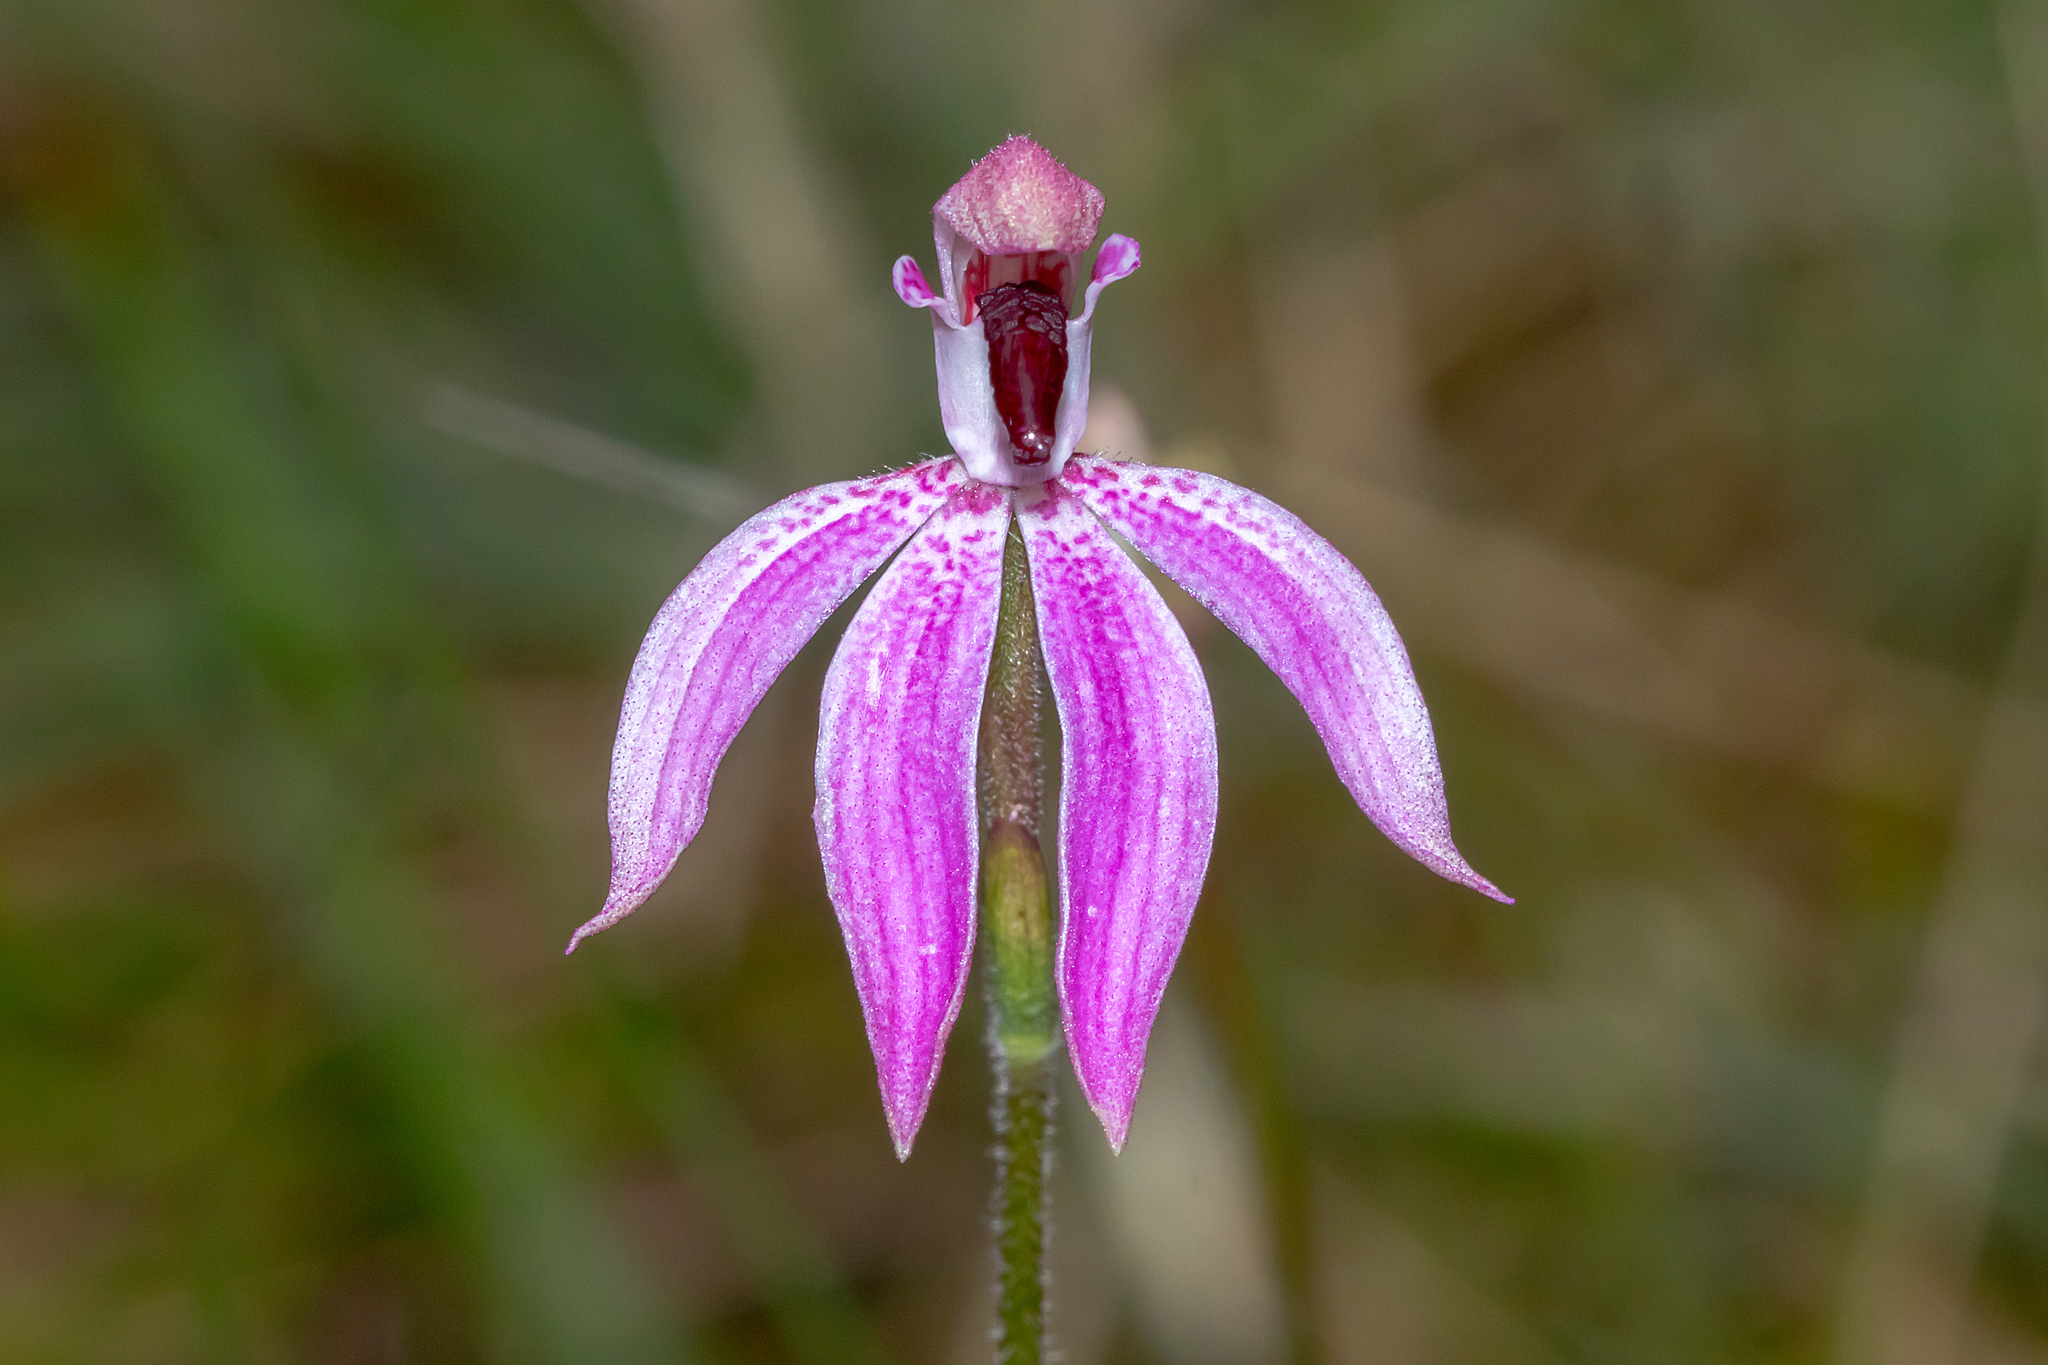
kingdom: Plantae
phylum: Tracheophyta
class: Liliopsida
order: Asparagales
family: Orchidaceae
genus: Caladenia
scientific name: Caladenia congesta
